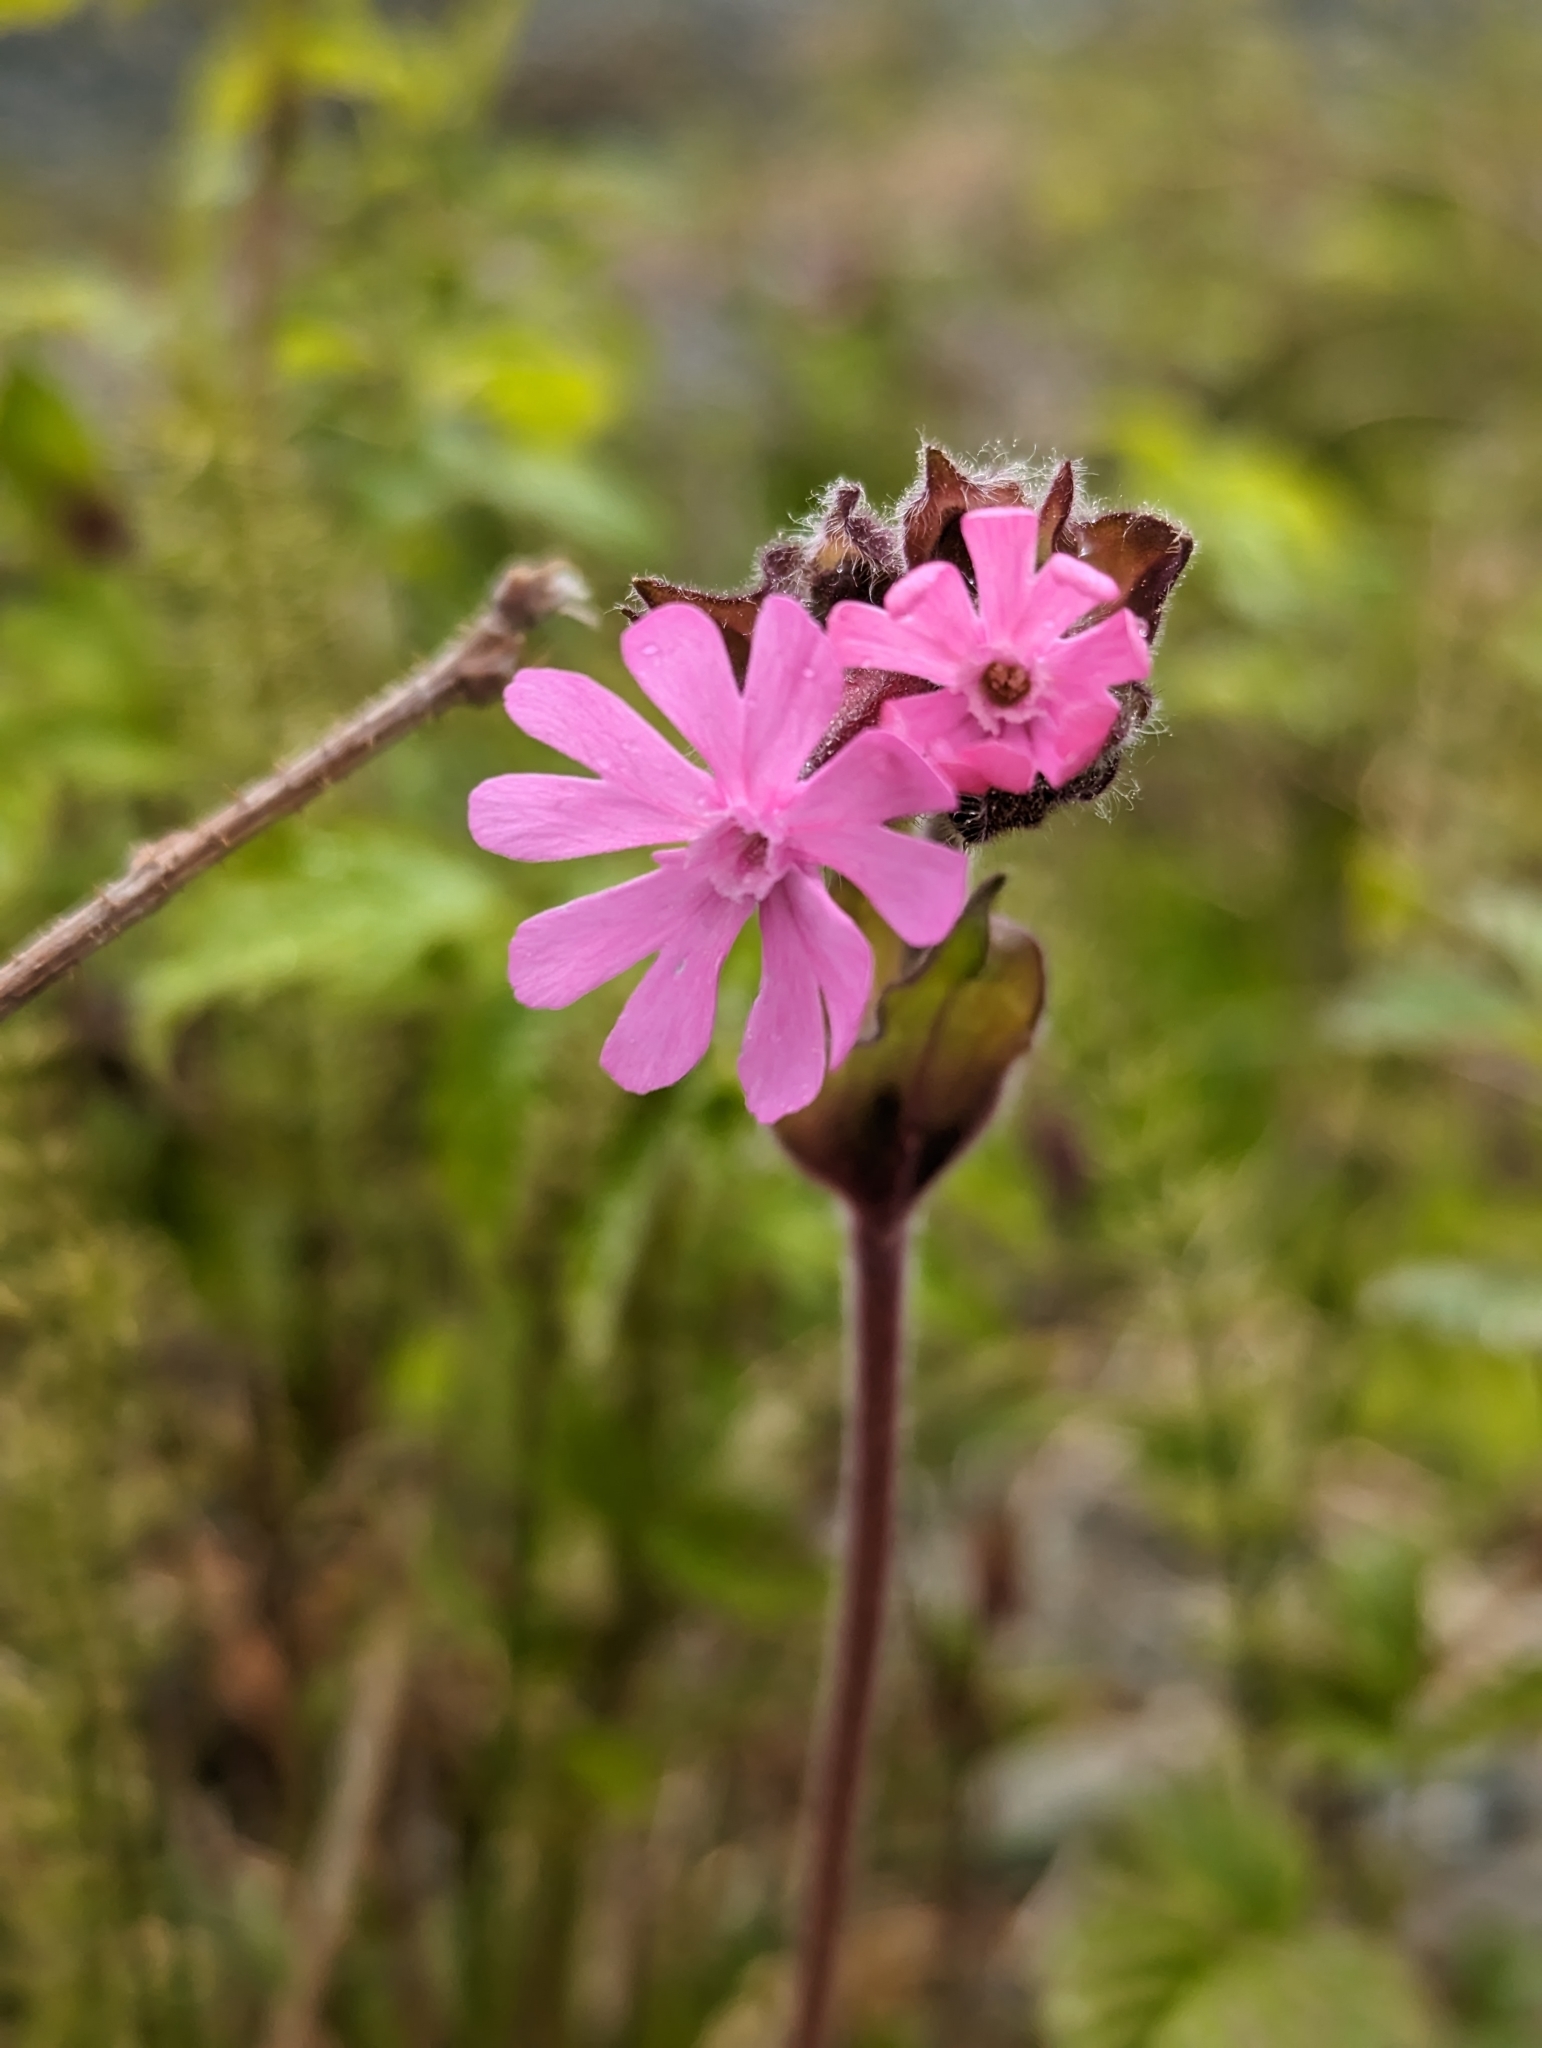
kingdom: Plantae
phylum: Tracheophyta
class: Magnoliopsida
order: Caryophyllales
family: Caryophyllaceae
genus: Silene
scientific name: Silene dioica
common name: Red campion
